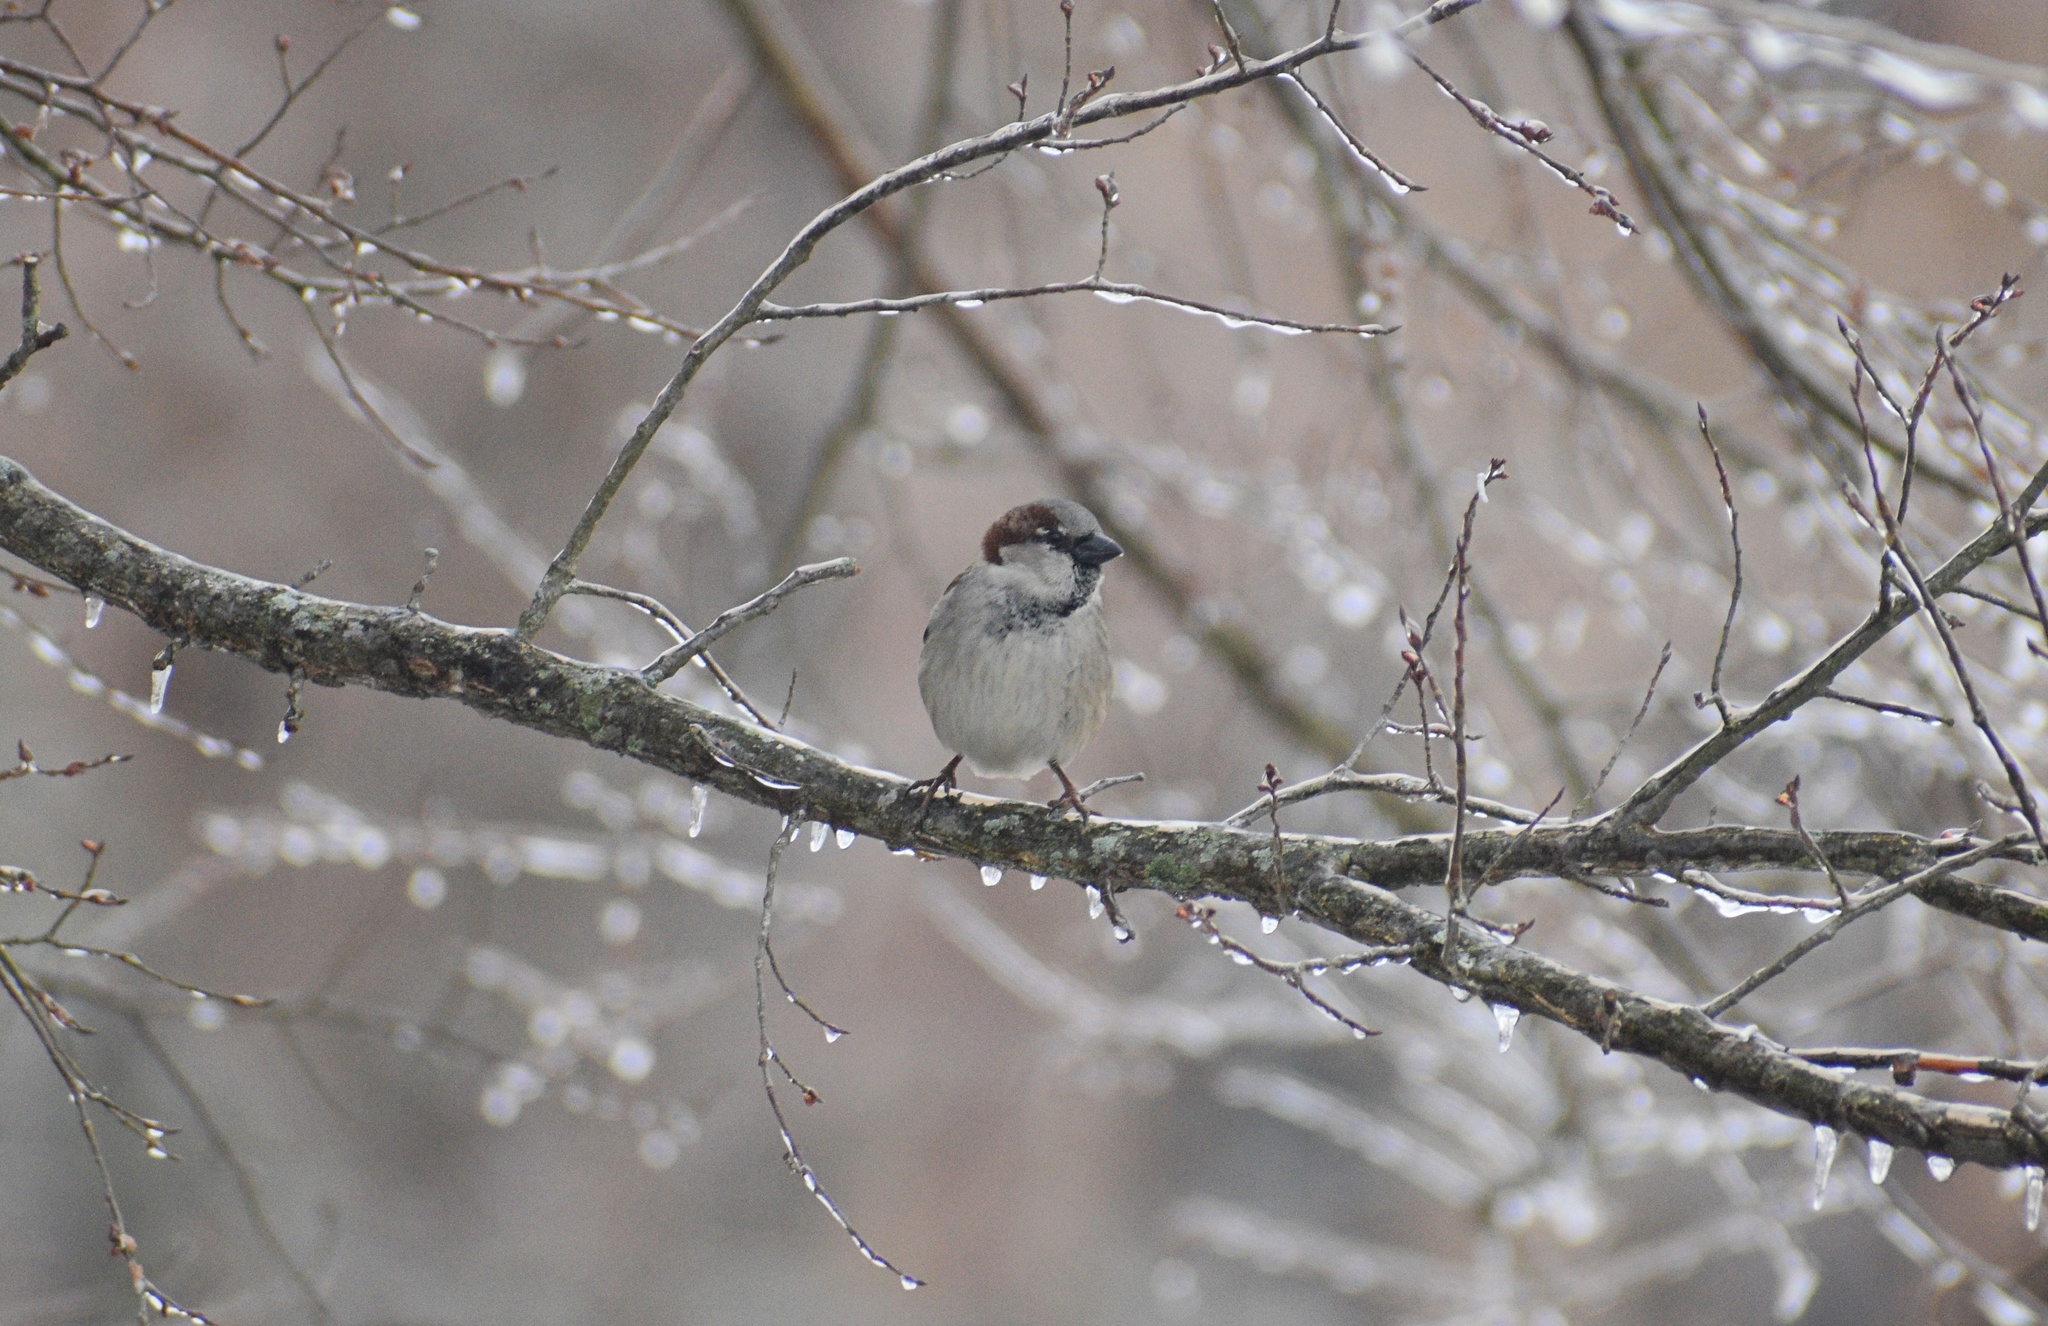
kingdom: Animalia
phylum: Chordata
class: Aves
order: Passeriformes
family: Passeridae
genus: Passer
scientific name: Passer domesticus
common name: House sparrow
